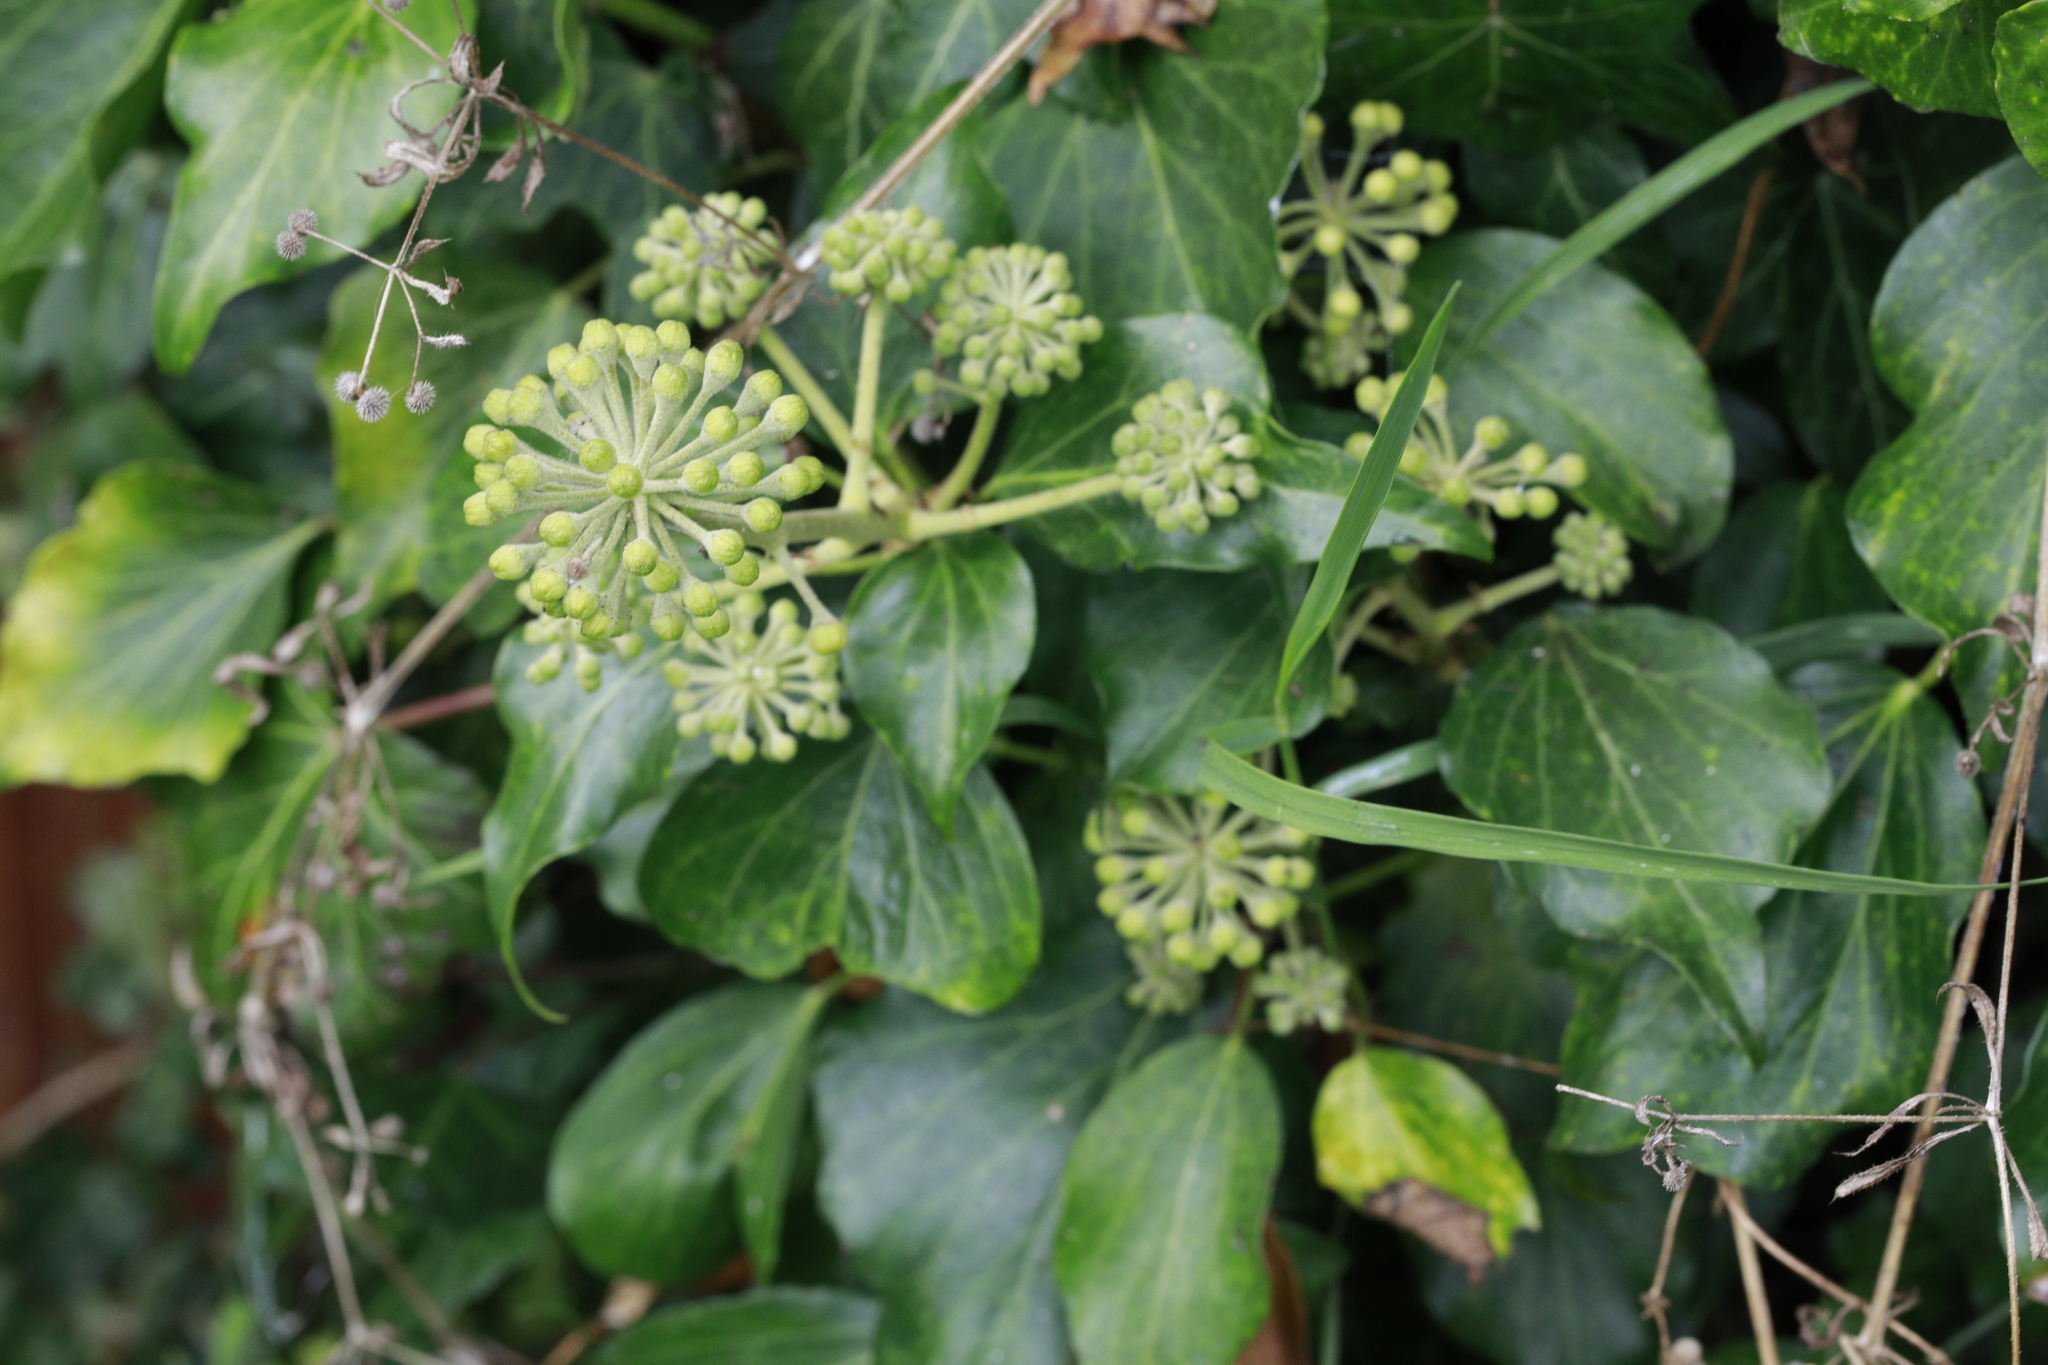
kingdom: Plantae
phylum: Tracheophyta
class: Magnoliopsida
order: Apiales
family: Araliaceae
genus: Hedera
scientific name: Hedera helix
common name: Ivy
